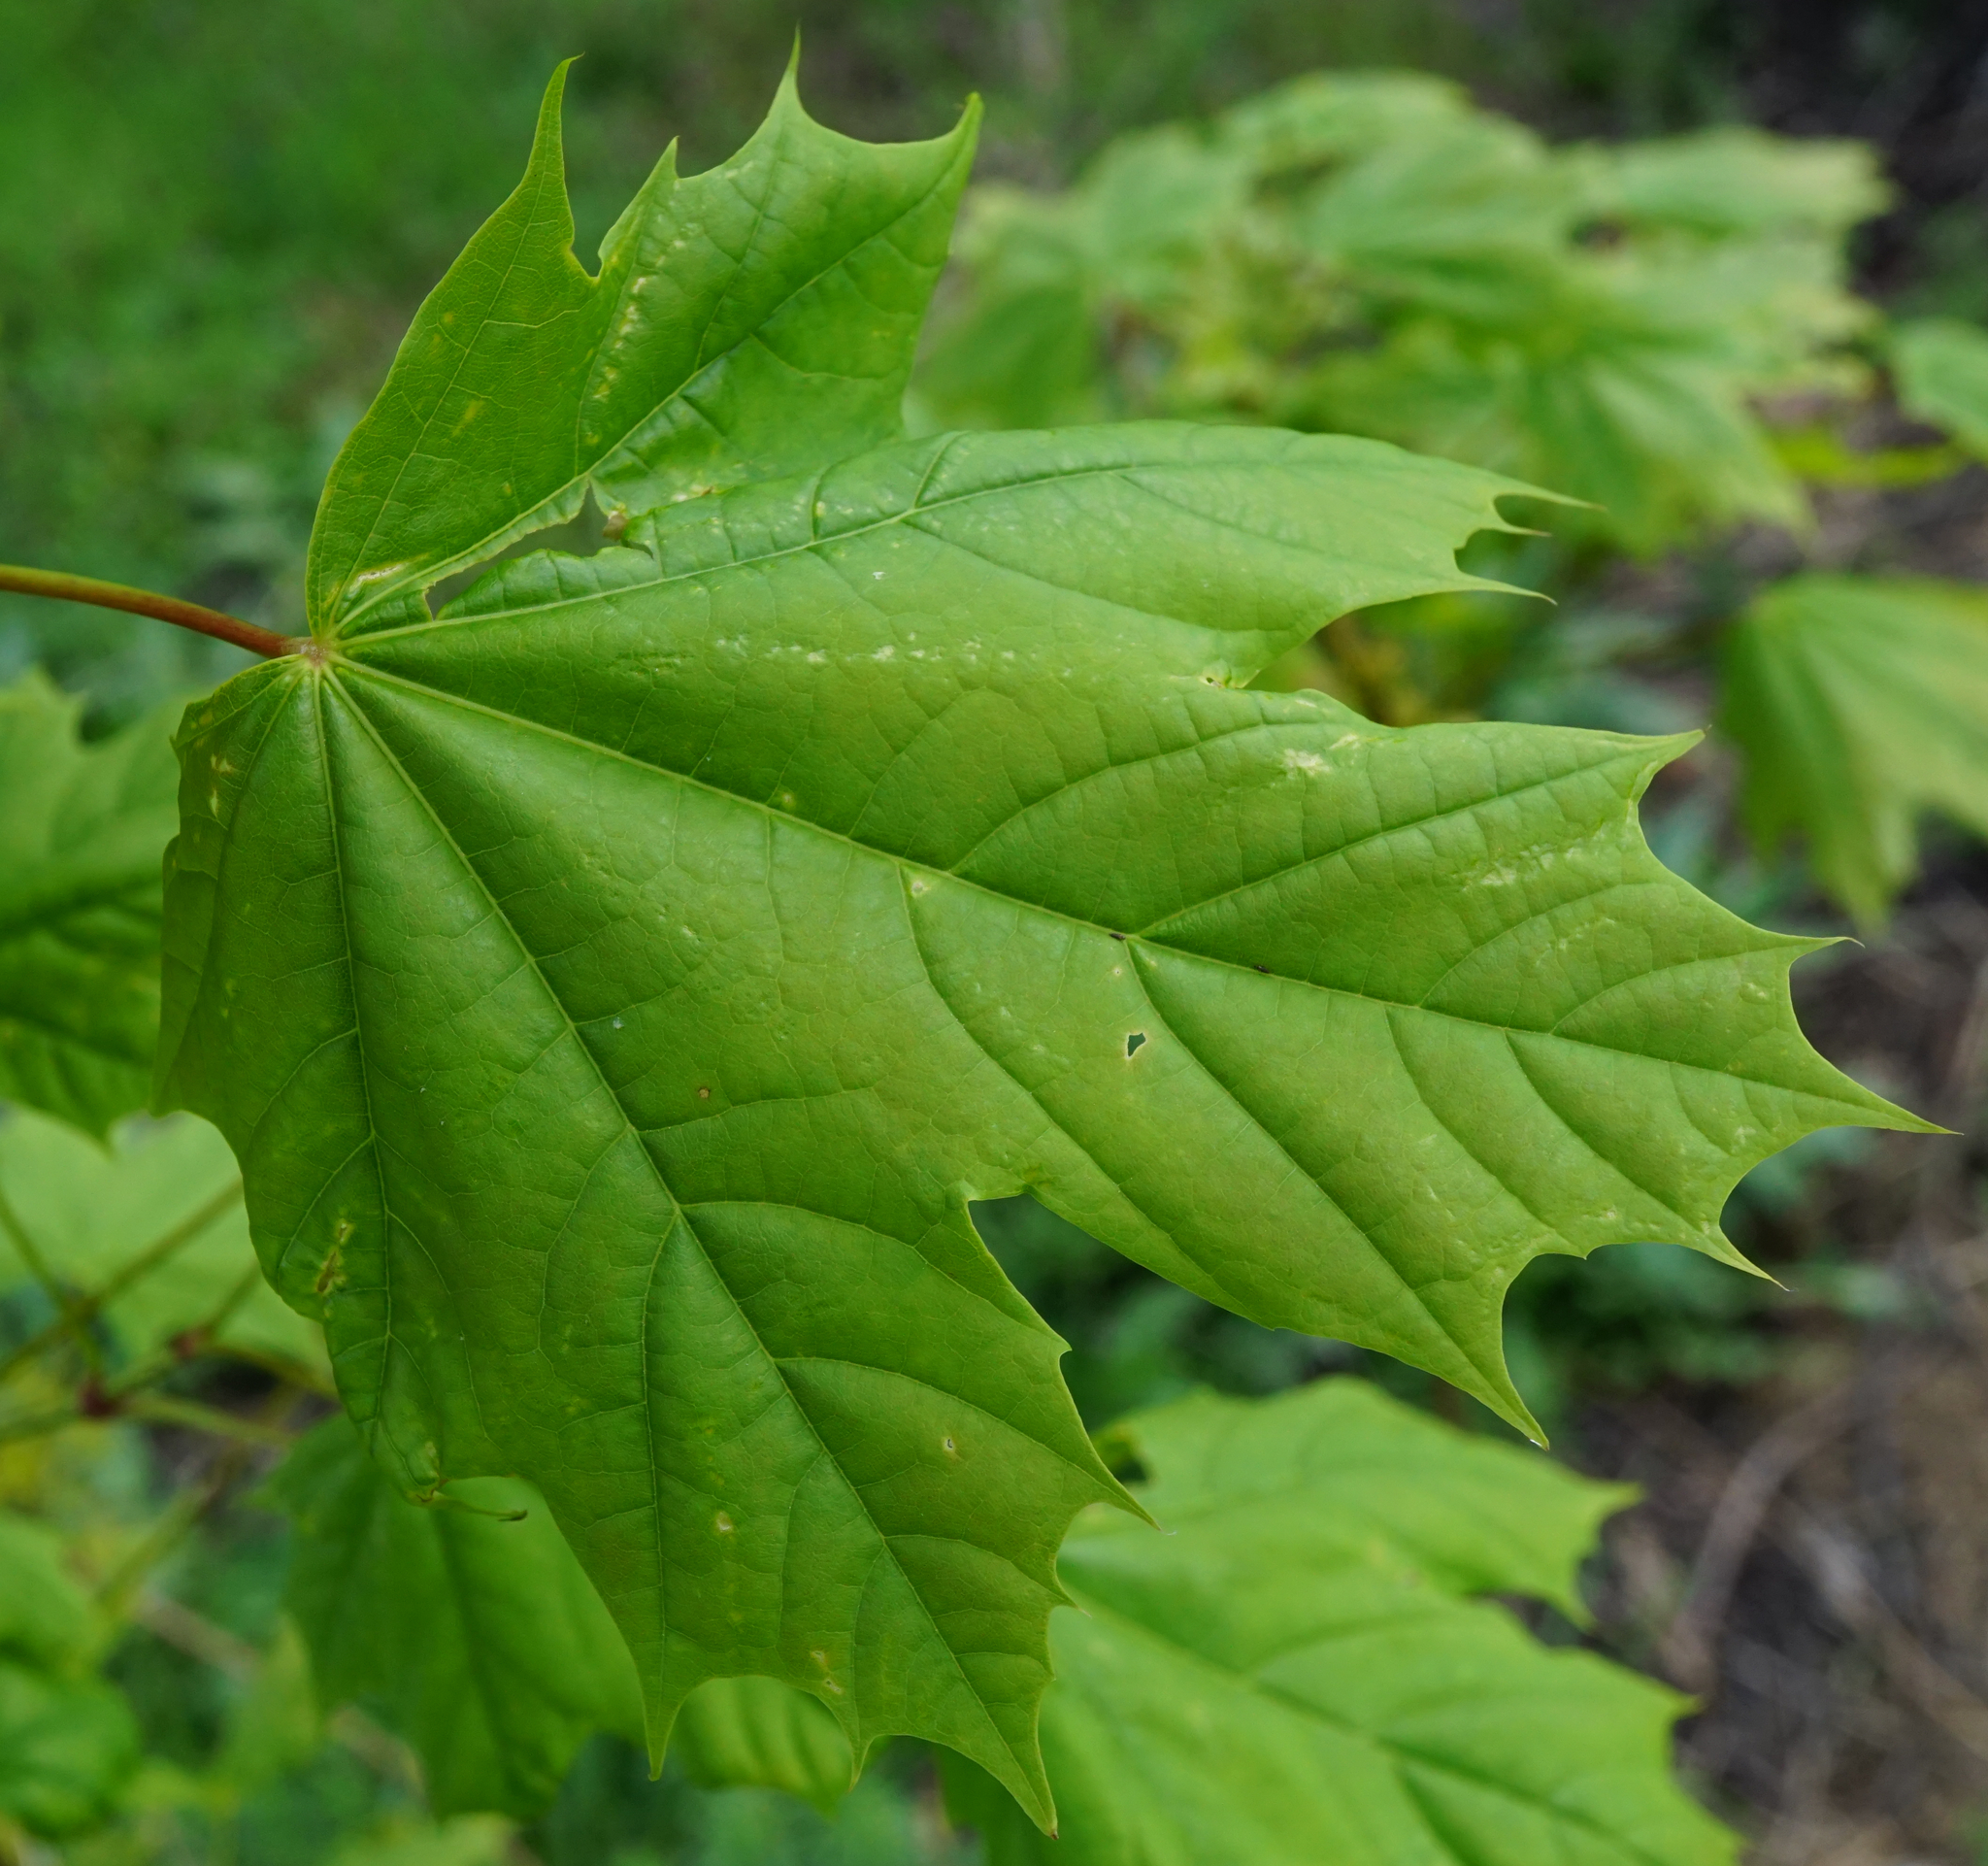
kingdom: Plantae
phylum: Tracheophyta
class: Magnoliopsida
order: Sapindales
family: Sapindaceae
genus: Acer
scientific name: Acer platanoides
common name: Norway maple
